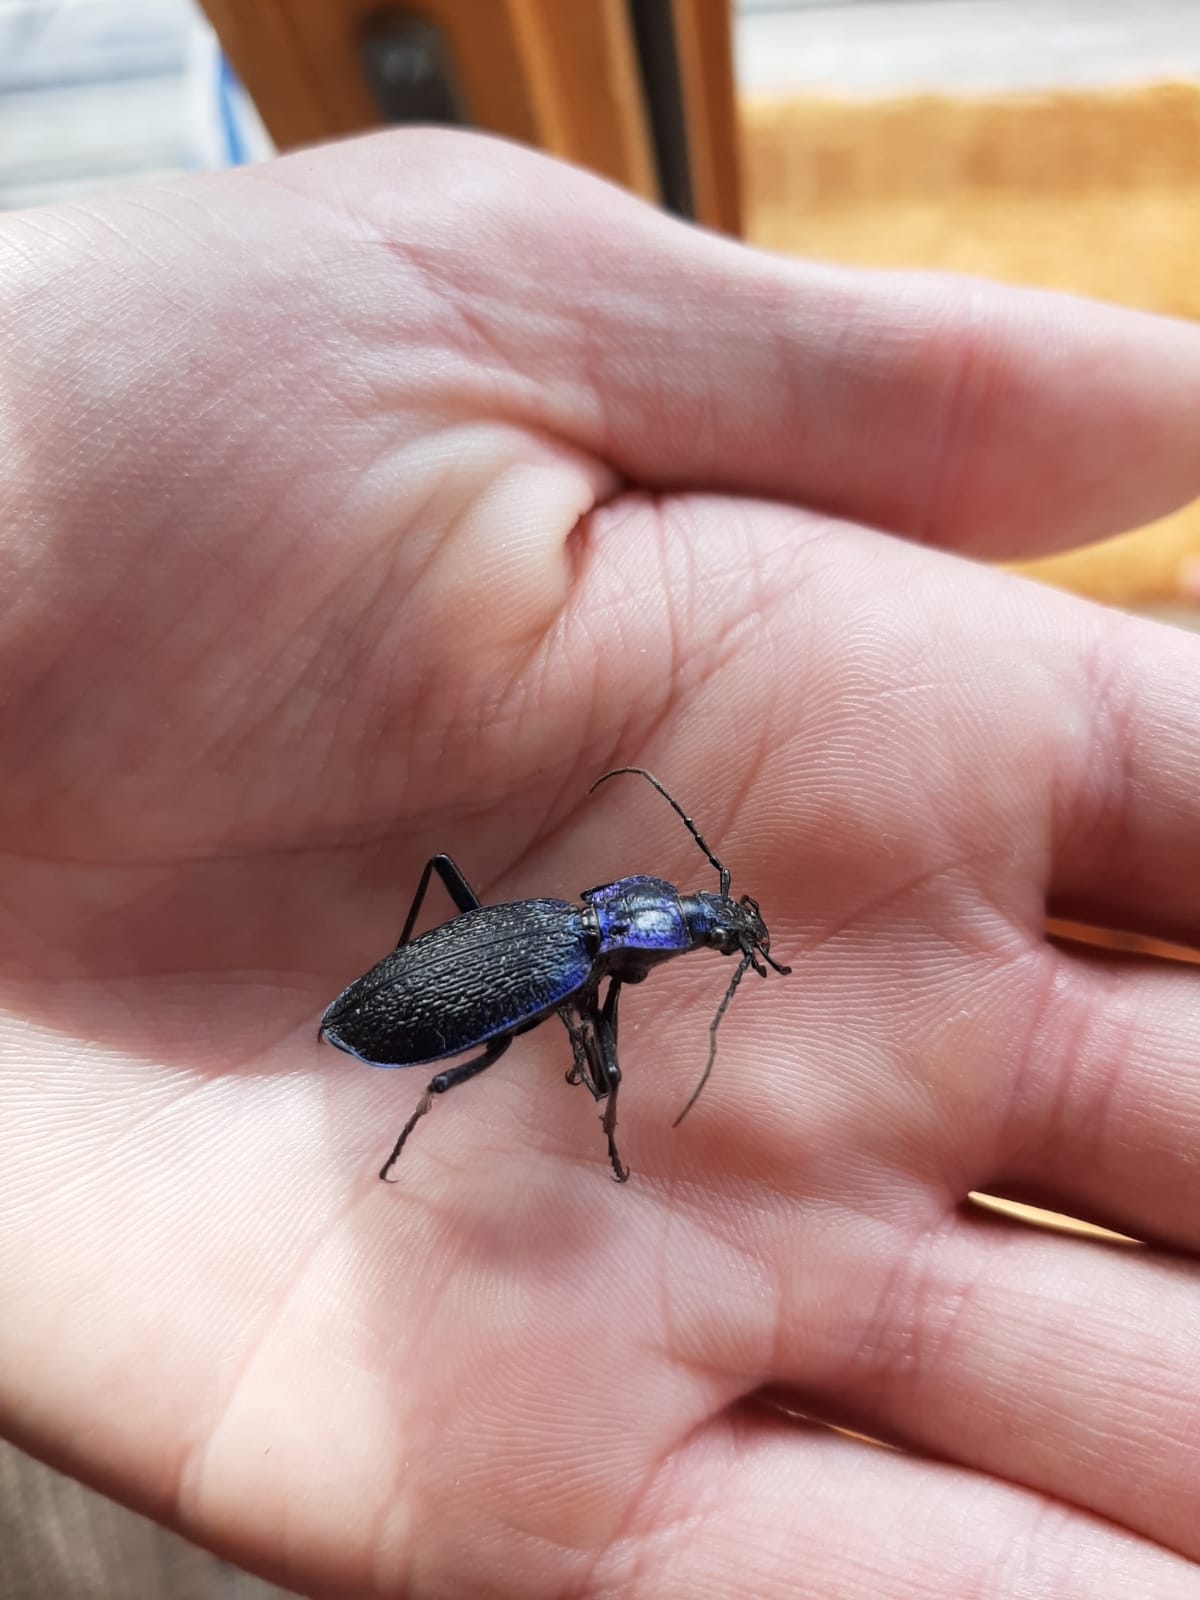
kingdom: Animalia
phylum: Arthropoda
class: Insecta
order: Coleoptera
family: Carabidae
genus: Carabus
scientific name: Carabus intricatus
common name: Blue ground beetle
